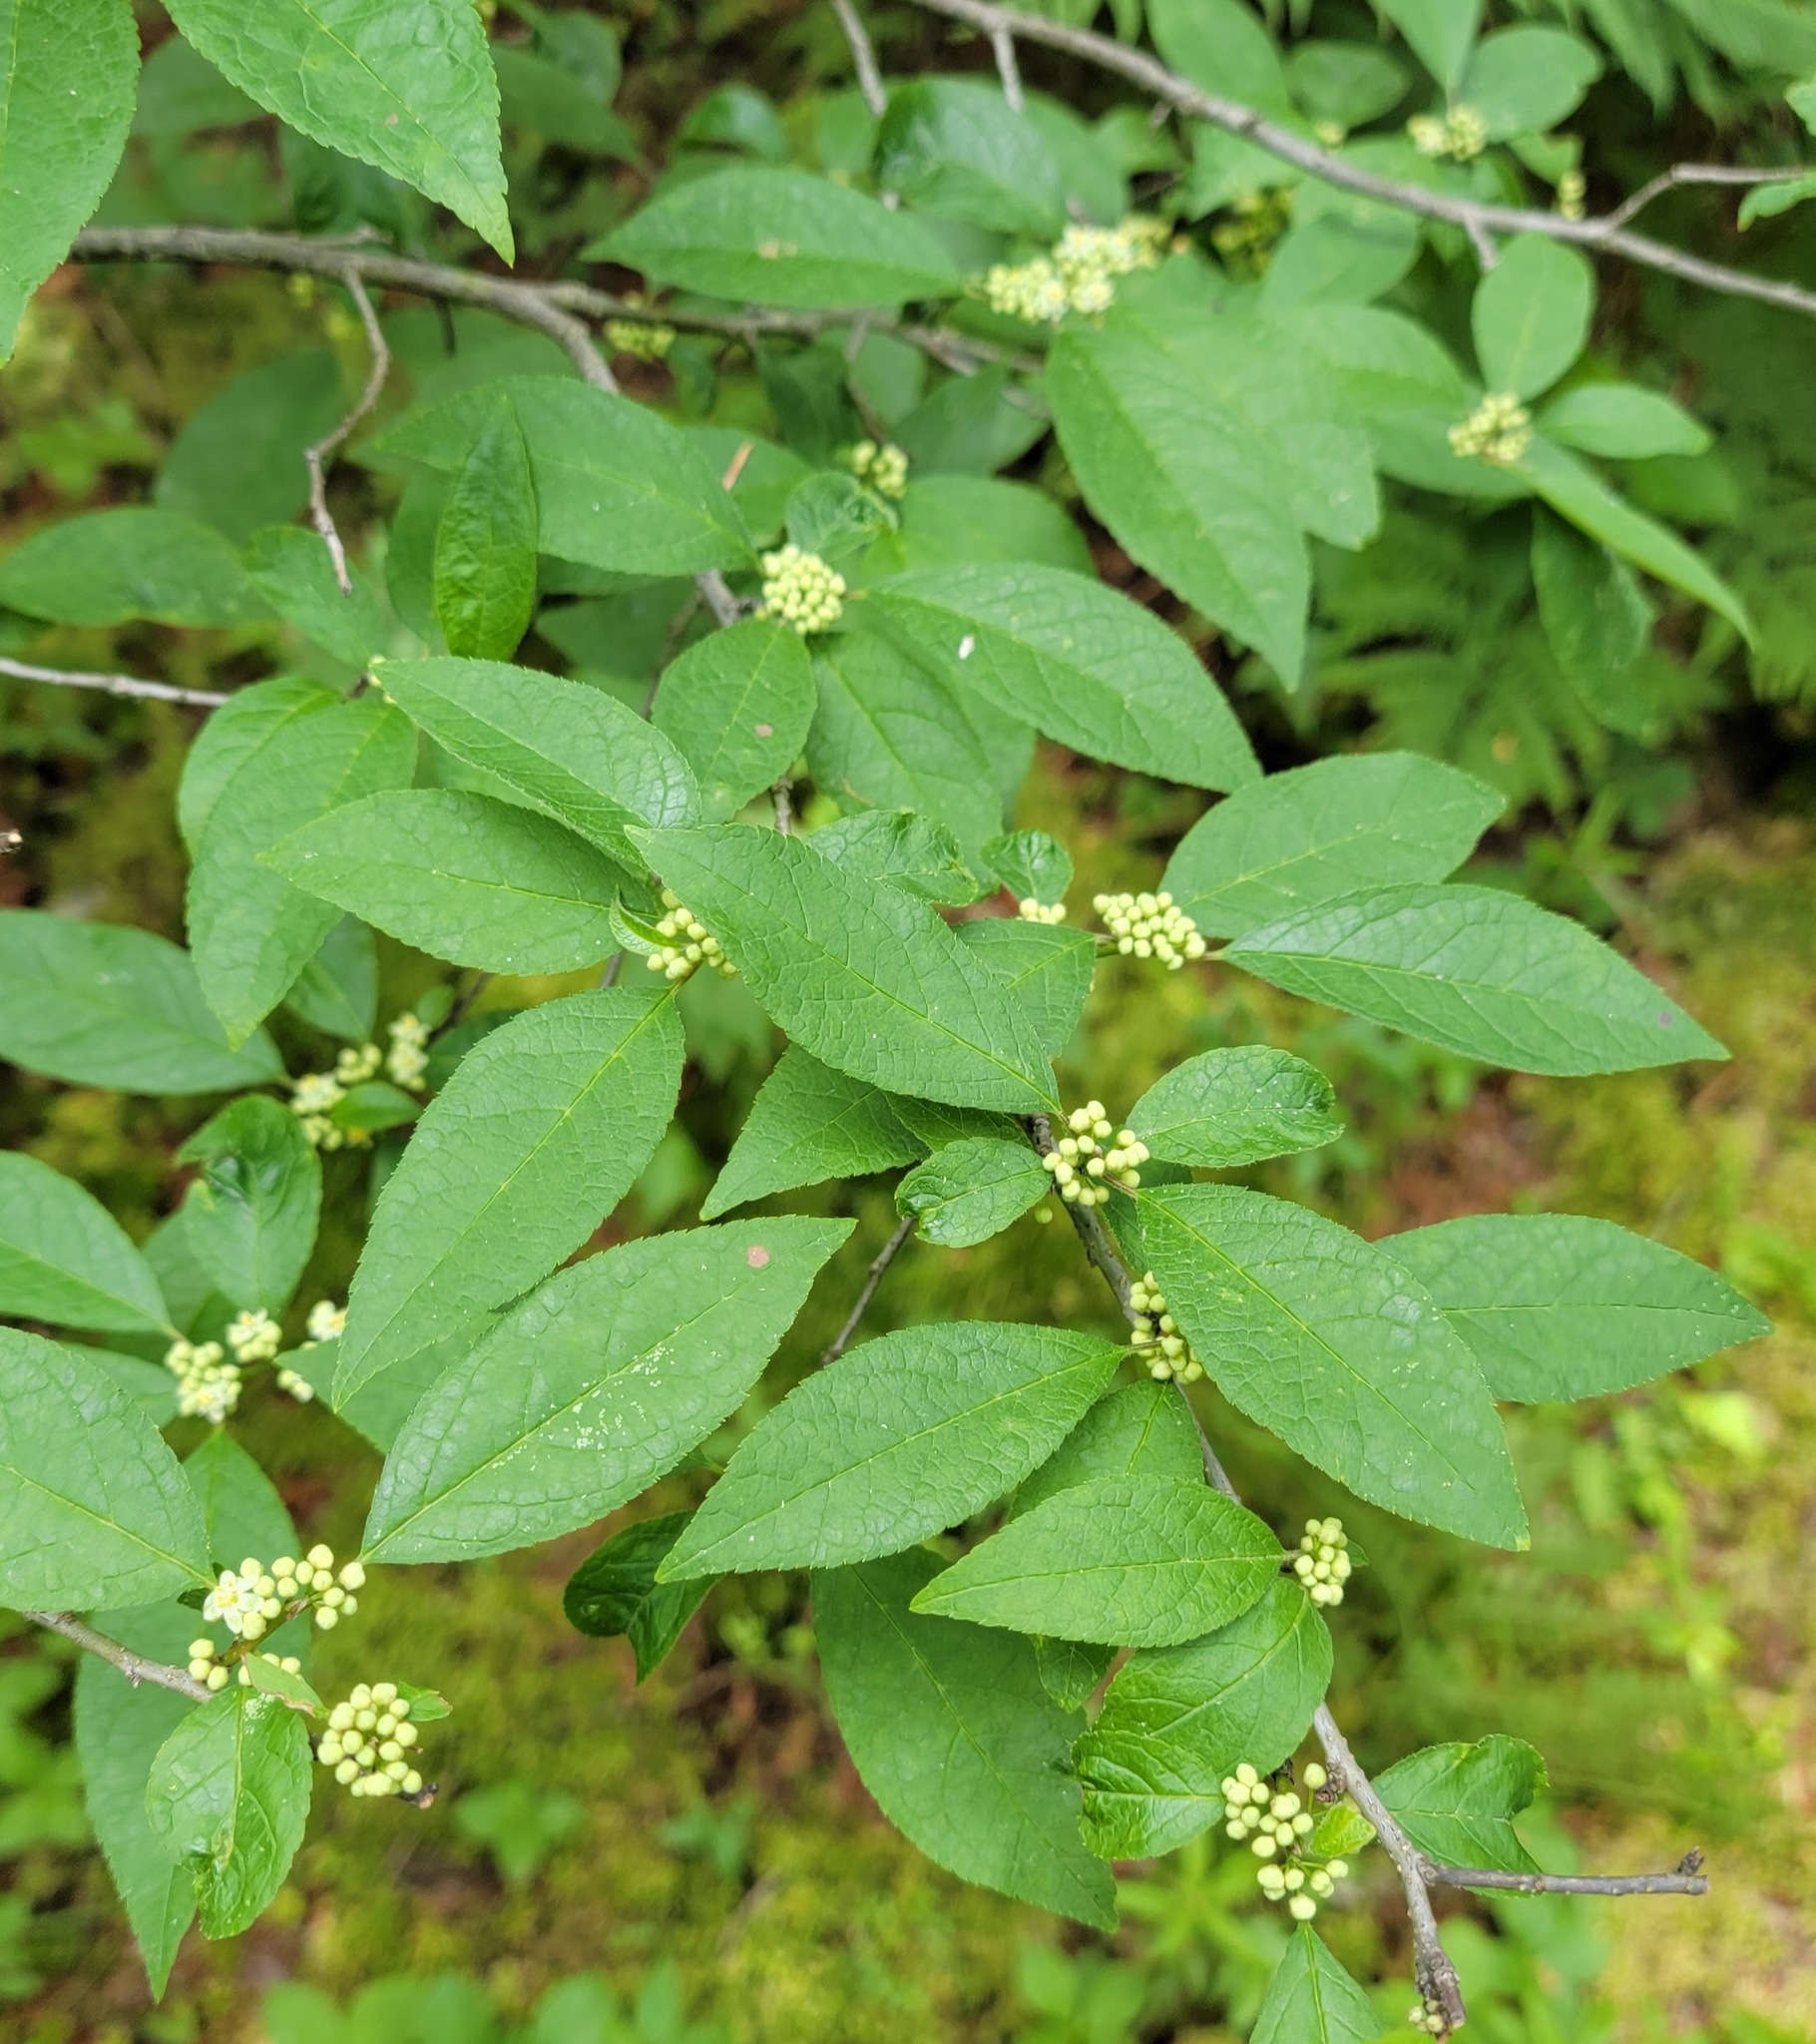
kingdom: Plantae
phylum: Tracheophyta
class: Magnoliopsida
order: Aquifoliales
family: Aquifoliaceae
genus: Ilex
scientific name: Ilex verticillata
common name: Virginia winterberry
